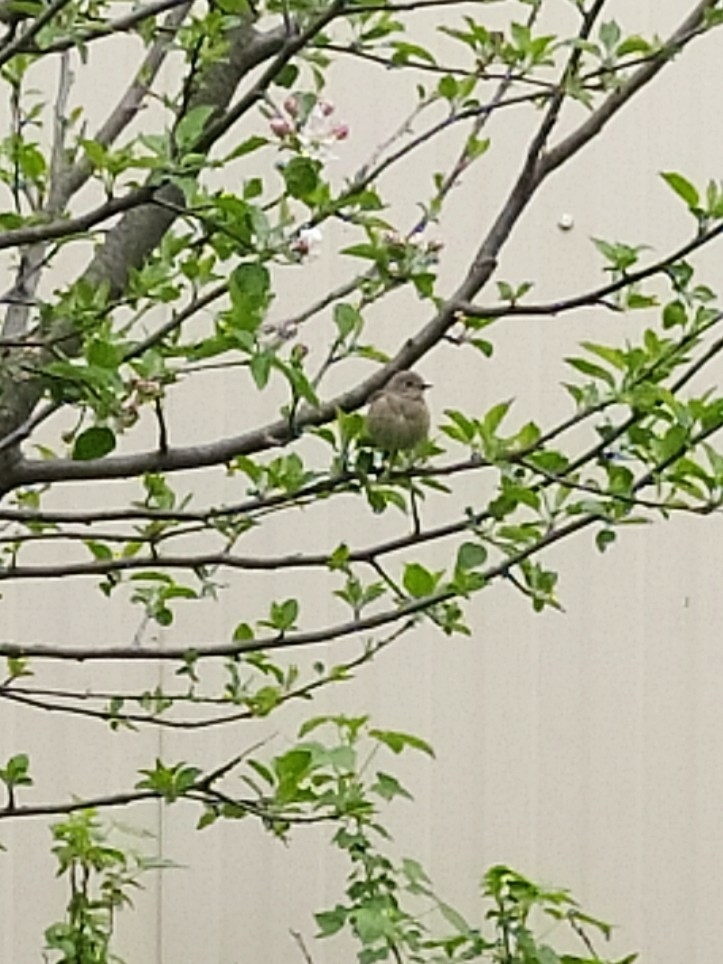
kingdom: Animalia
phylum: Chordata
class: Aves
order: Passeriformes
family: Muscicapidae
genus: Phoenicurus
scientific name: Phoenicurus phoenicurus
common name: Common redstart
